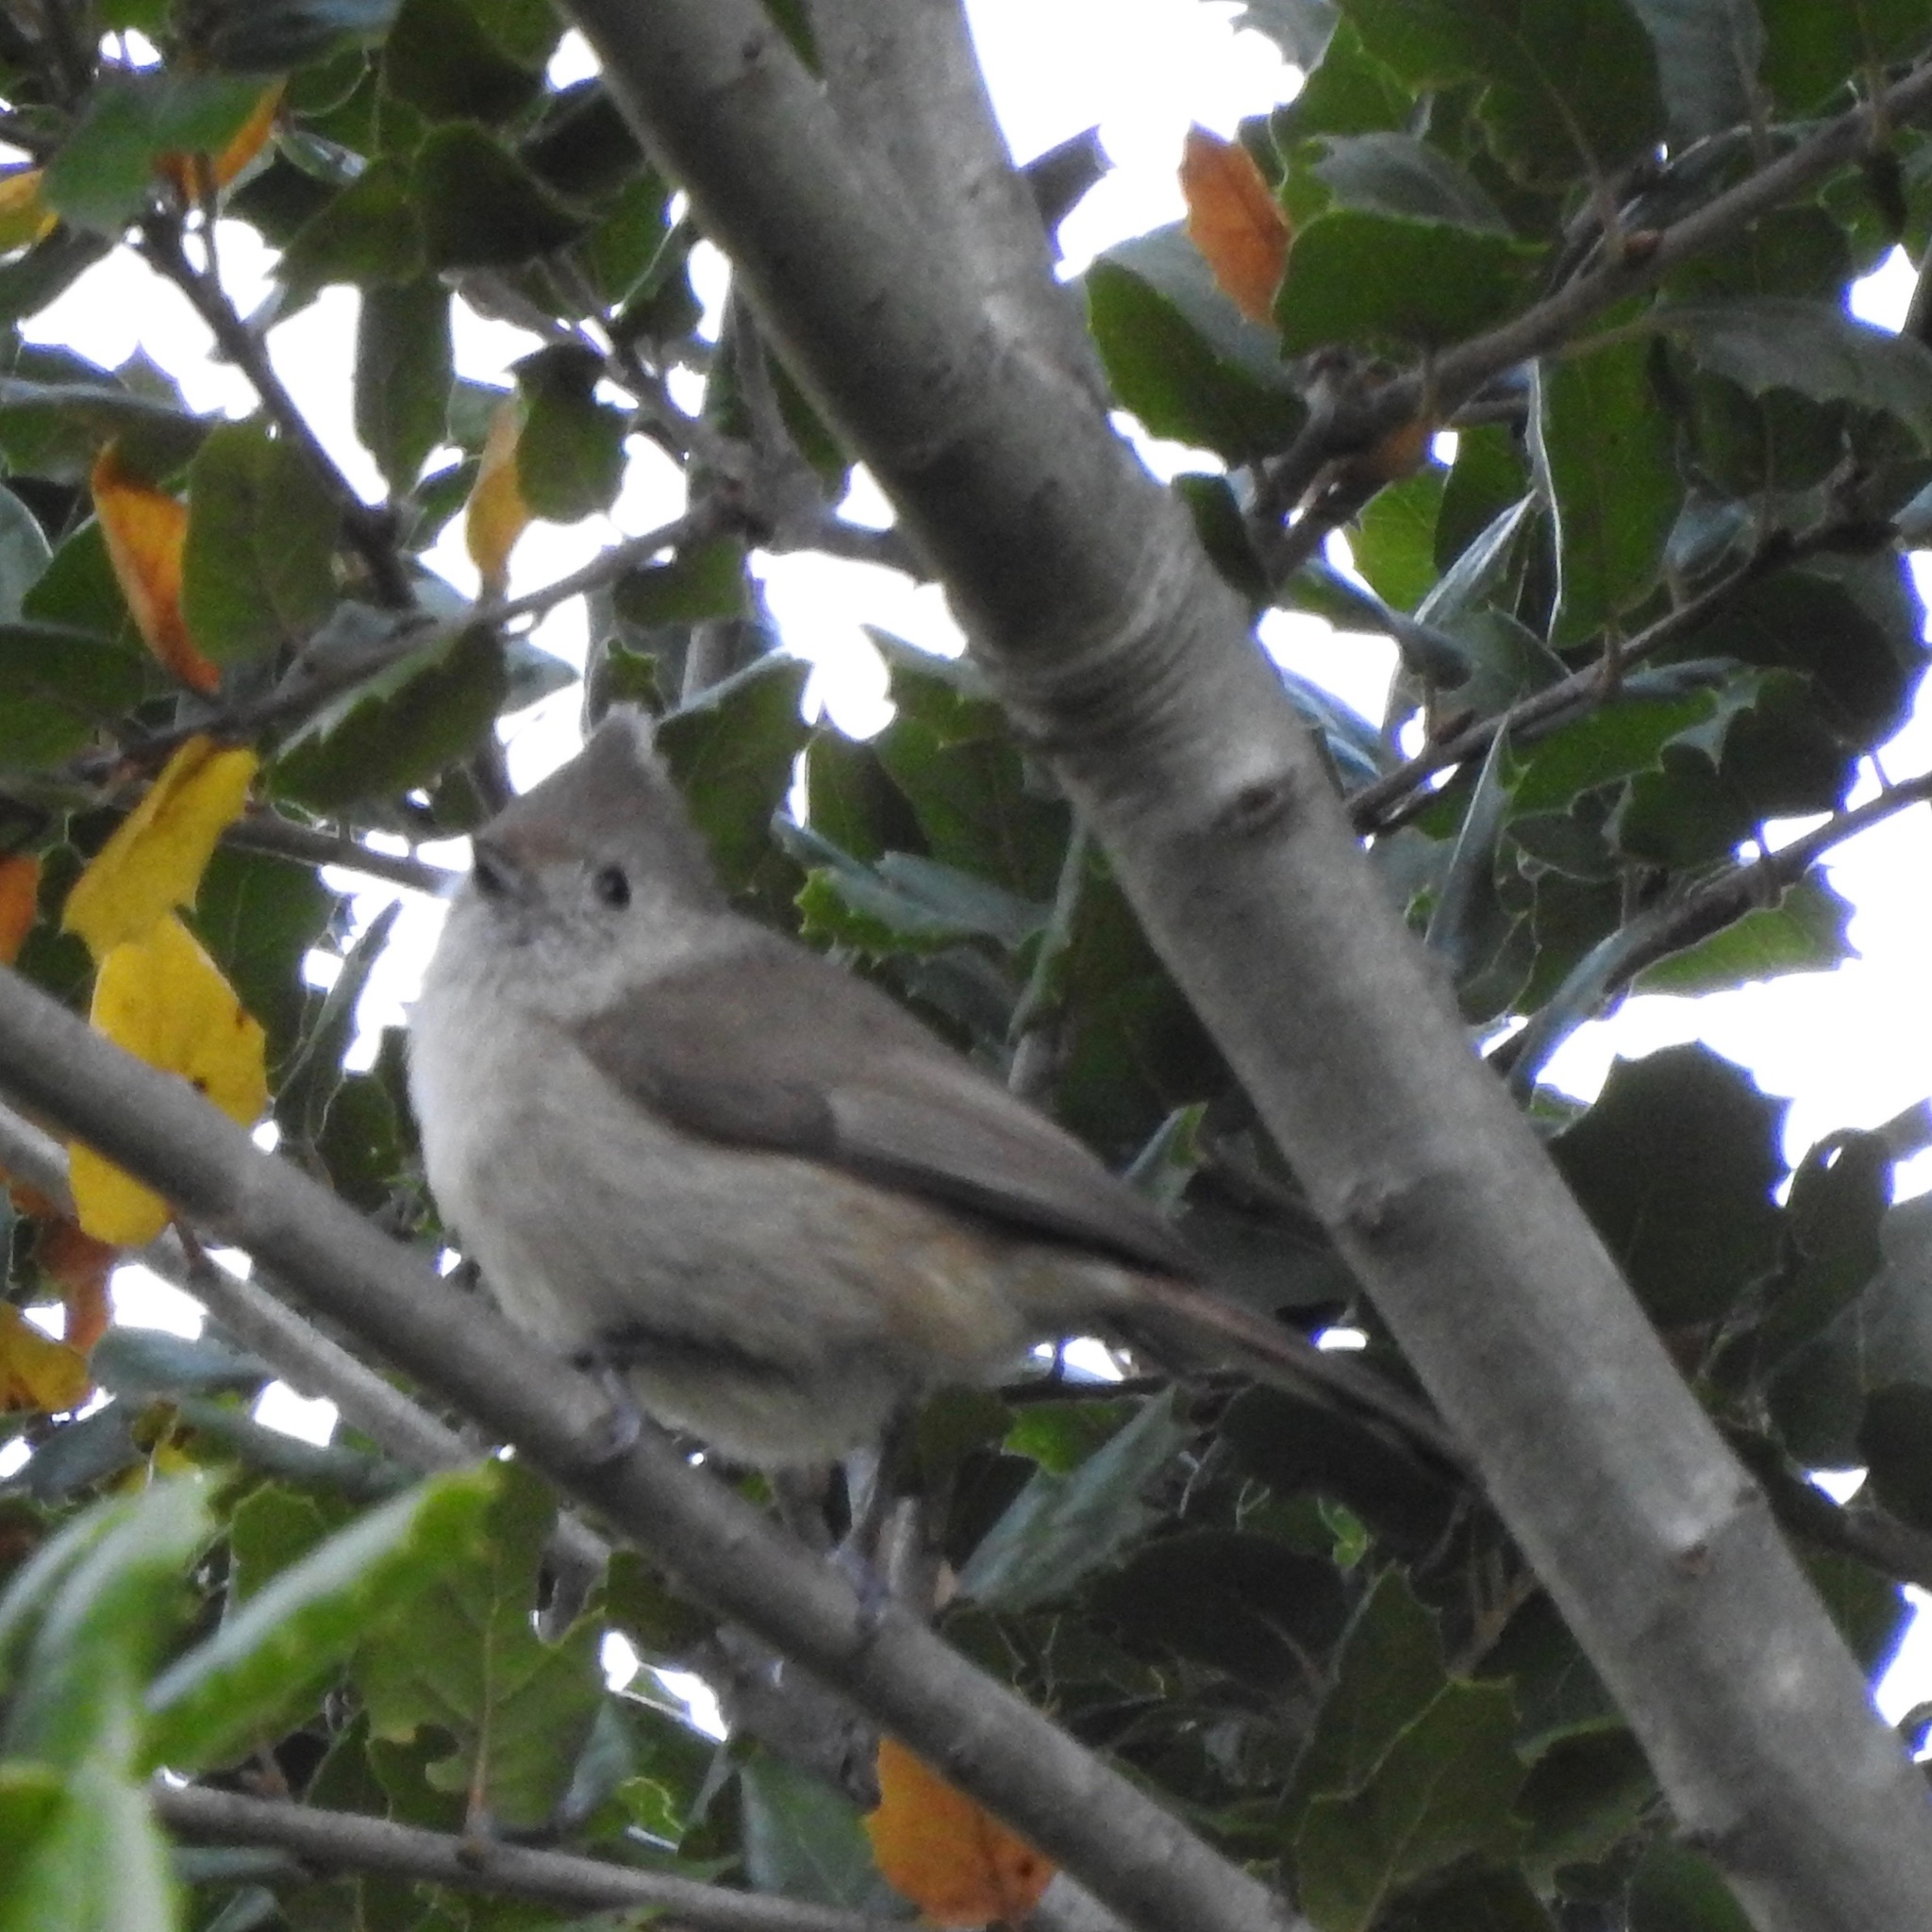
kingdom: Animalia
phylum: Chordata
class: Aves
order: Passeriformes
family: Paridae
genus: Baeolophus
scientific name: Baeolophus inornatus
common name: Oak titmouse
